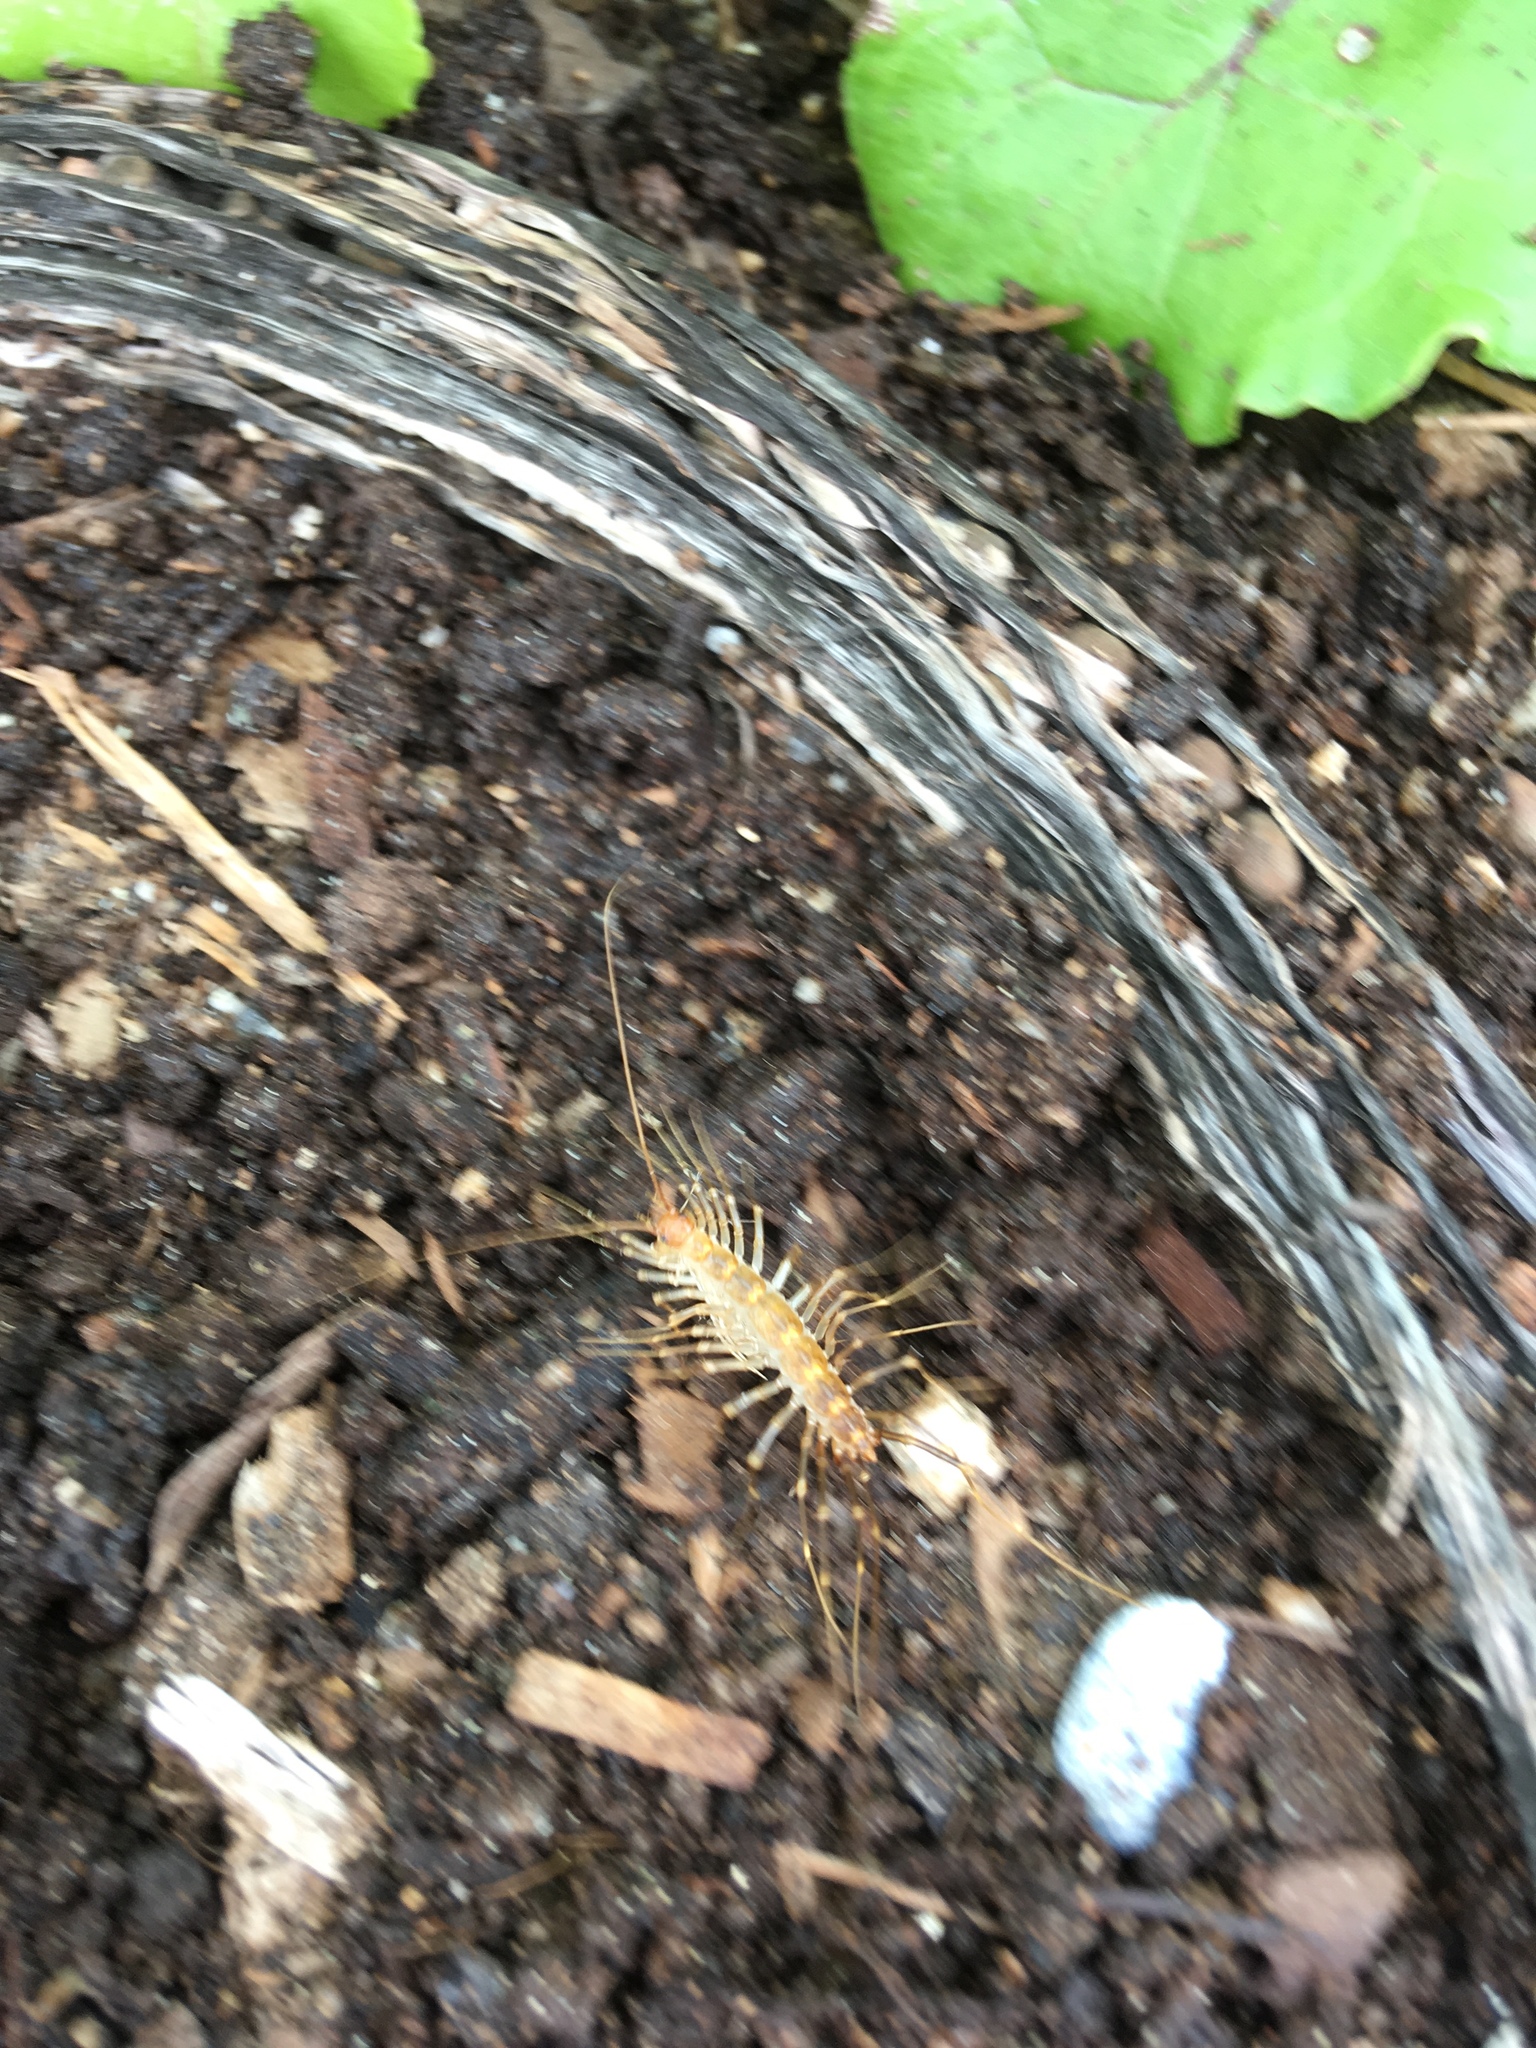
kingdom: Animalia
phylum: Arthropoda
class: Chilopoda
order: Scutigeromorpha
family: Scutigeridae
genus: Scutigera
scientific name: Scutigera coleoptrata
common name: House centipede
